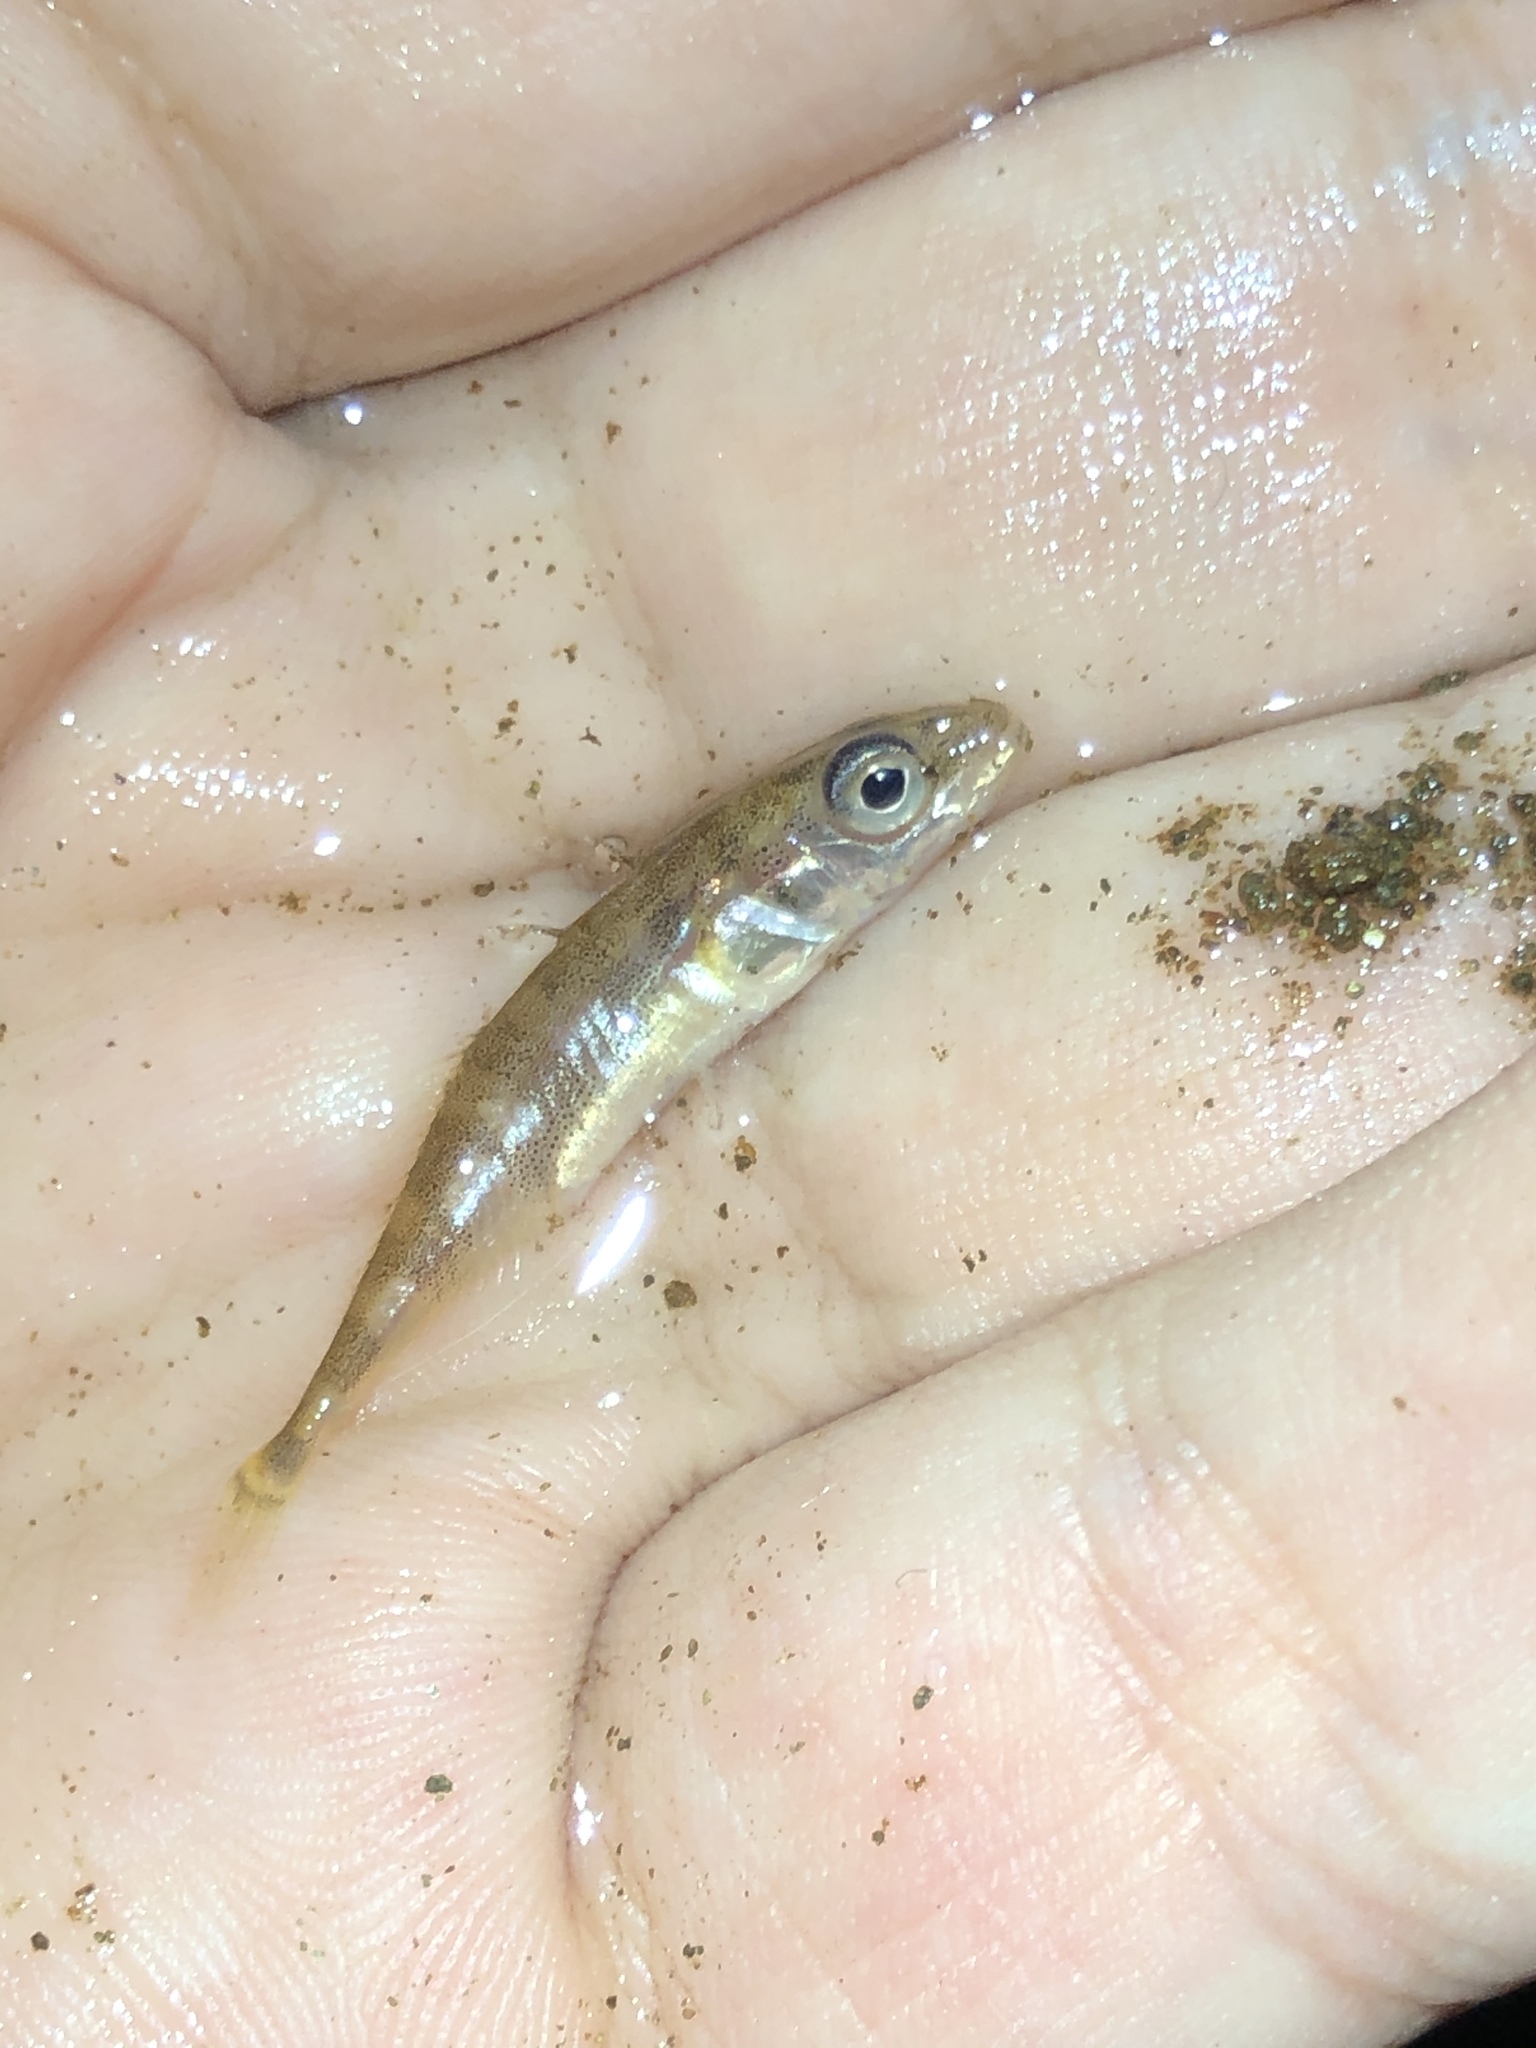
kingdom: Animalia
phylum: Chordata
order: Gasterosteiformes
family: Gasterosteidae
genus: Gasterosteus
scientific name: Gasterosteus aculeatus
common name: Three-spined stickleback
